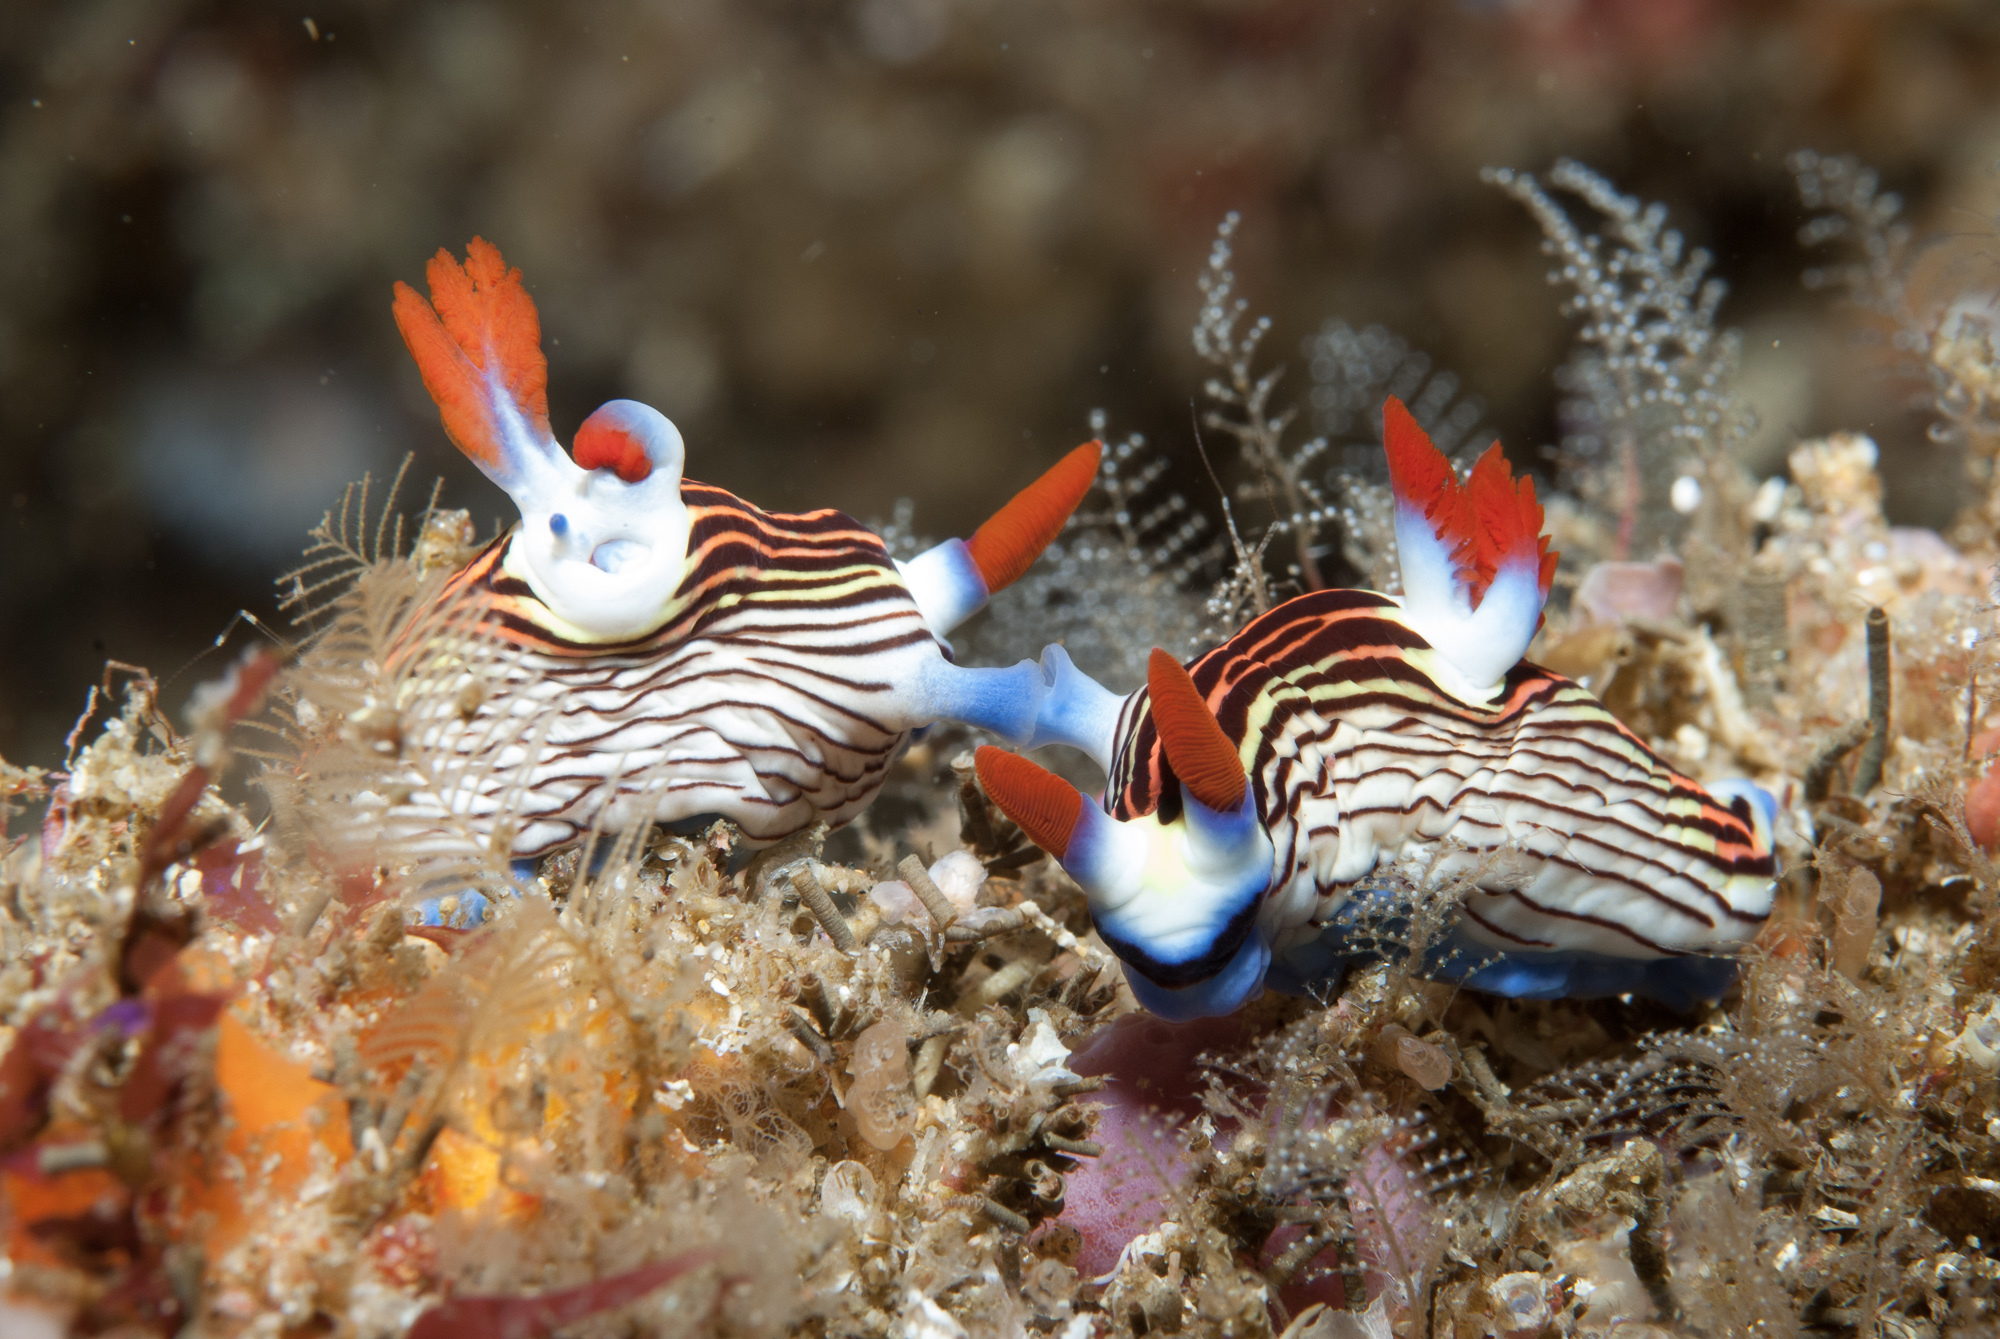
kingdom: Animalia
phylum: Mollusca
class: Gastropoda
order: Nudibranchia
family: Polyceridae
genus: Nembrotha
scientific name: Nembrotha aurea
